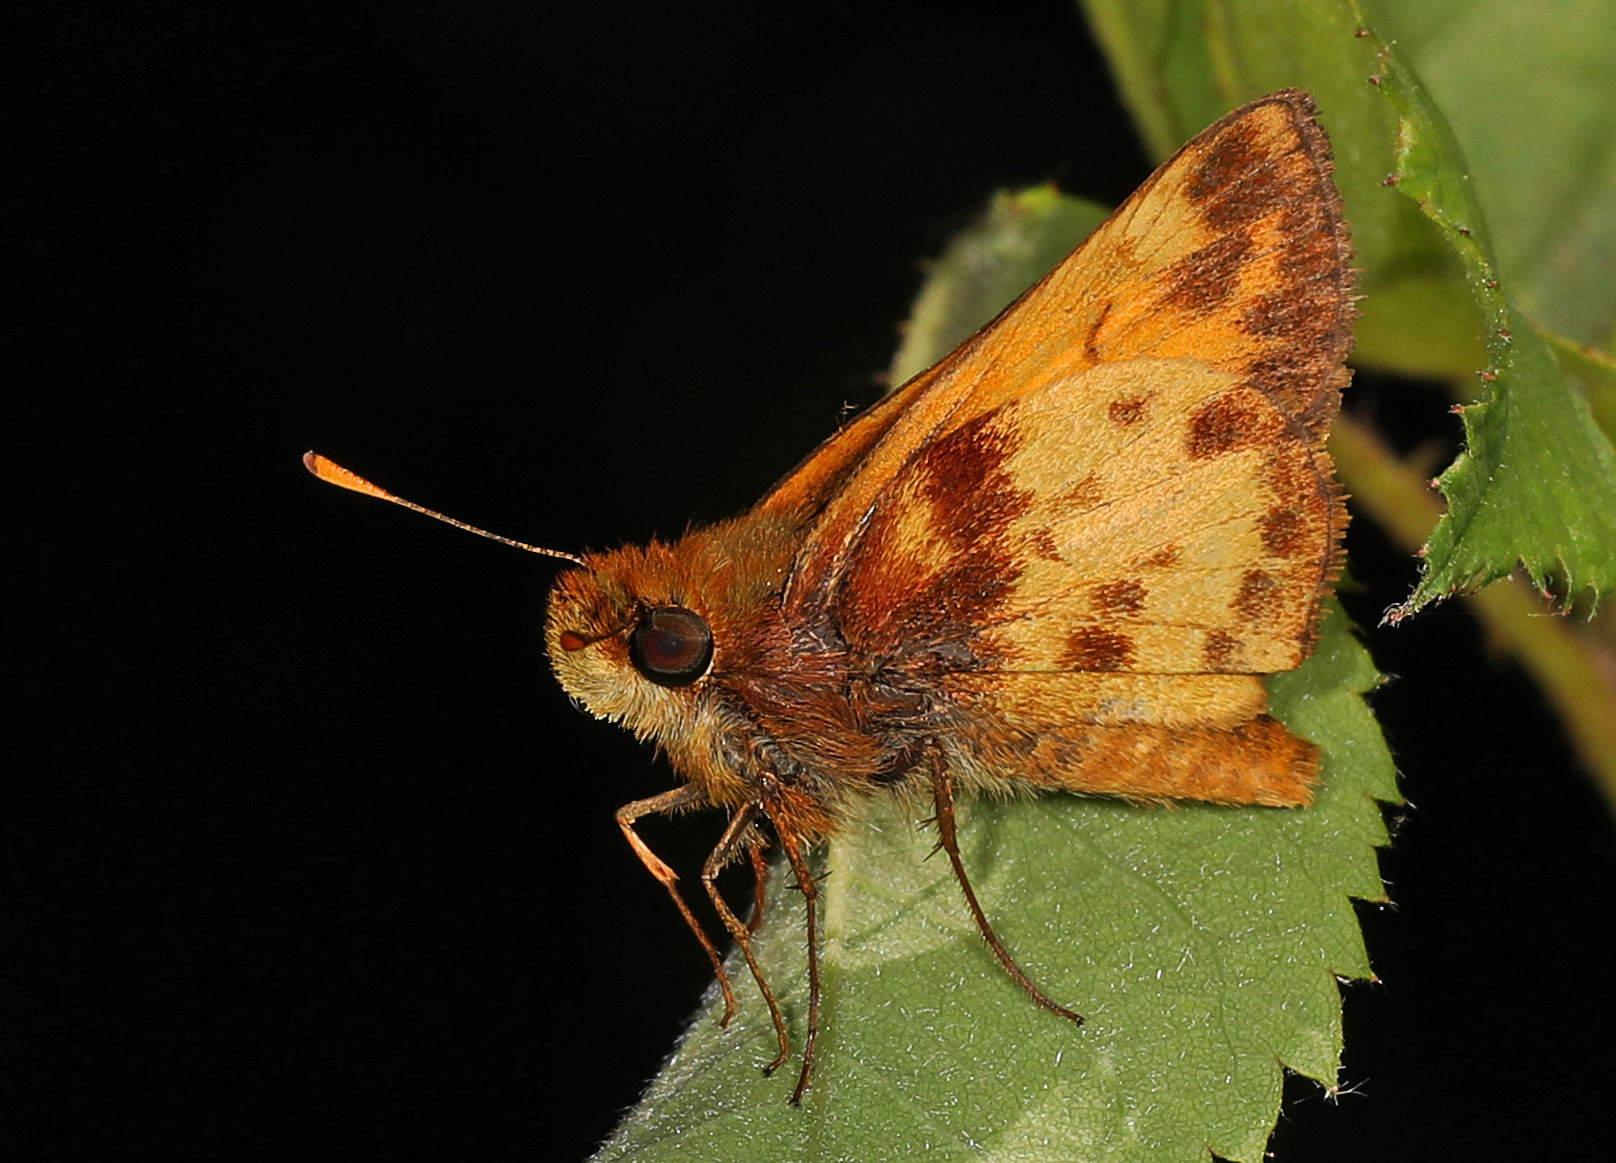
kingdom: Animalia
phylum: Arthropoda
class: Insecta
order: Lepidoptera
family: Hesperiidae
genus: Lon
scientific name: Lon zabulon
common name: Zabulon skipper
